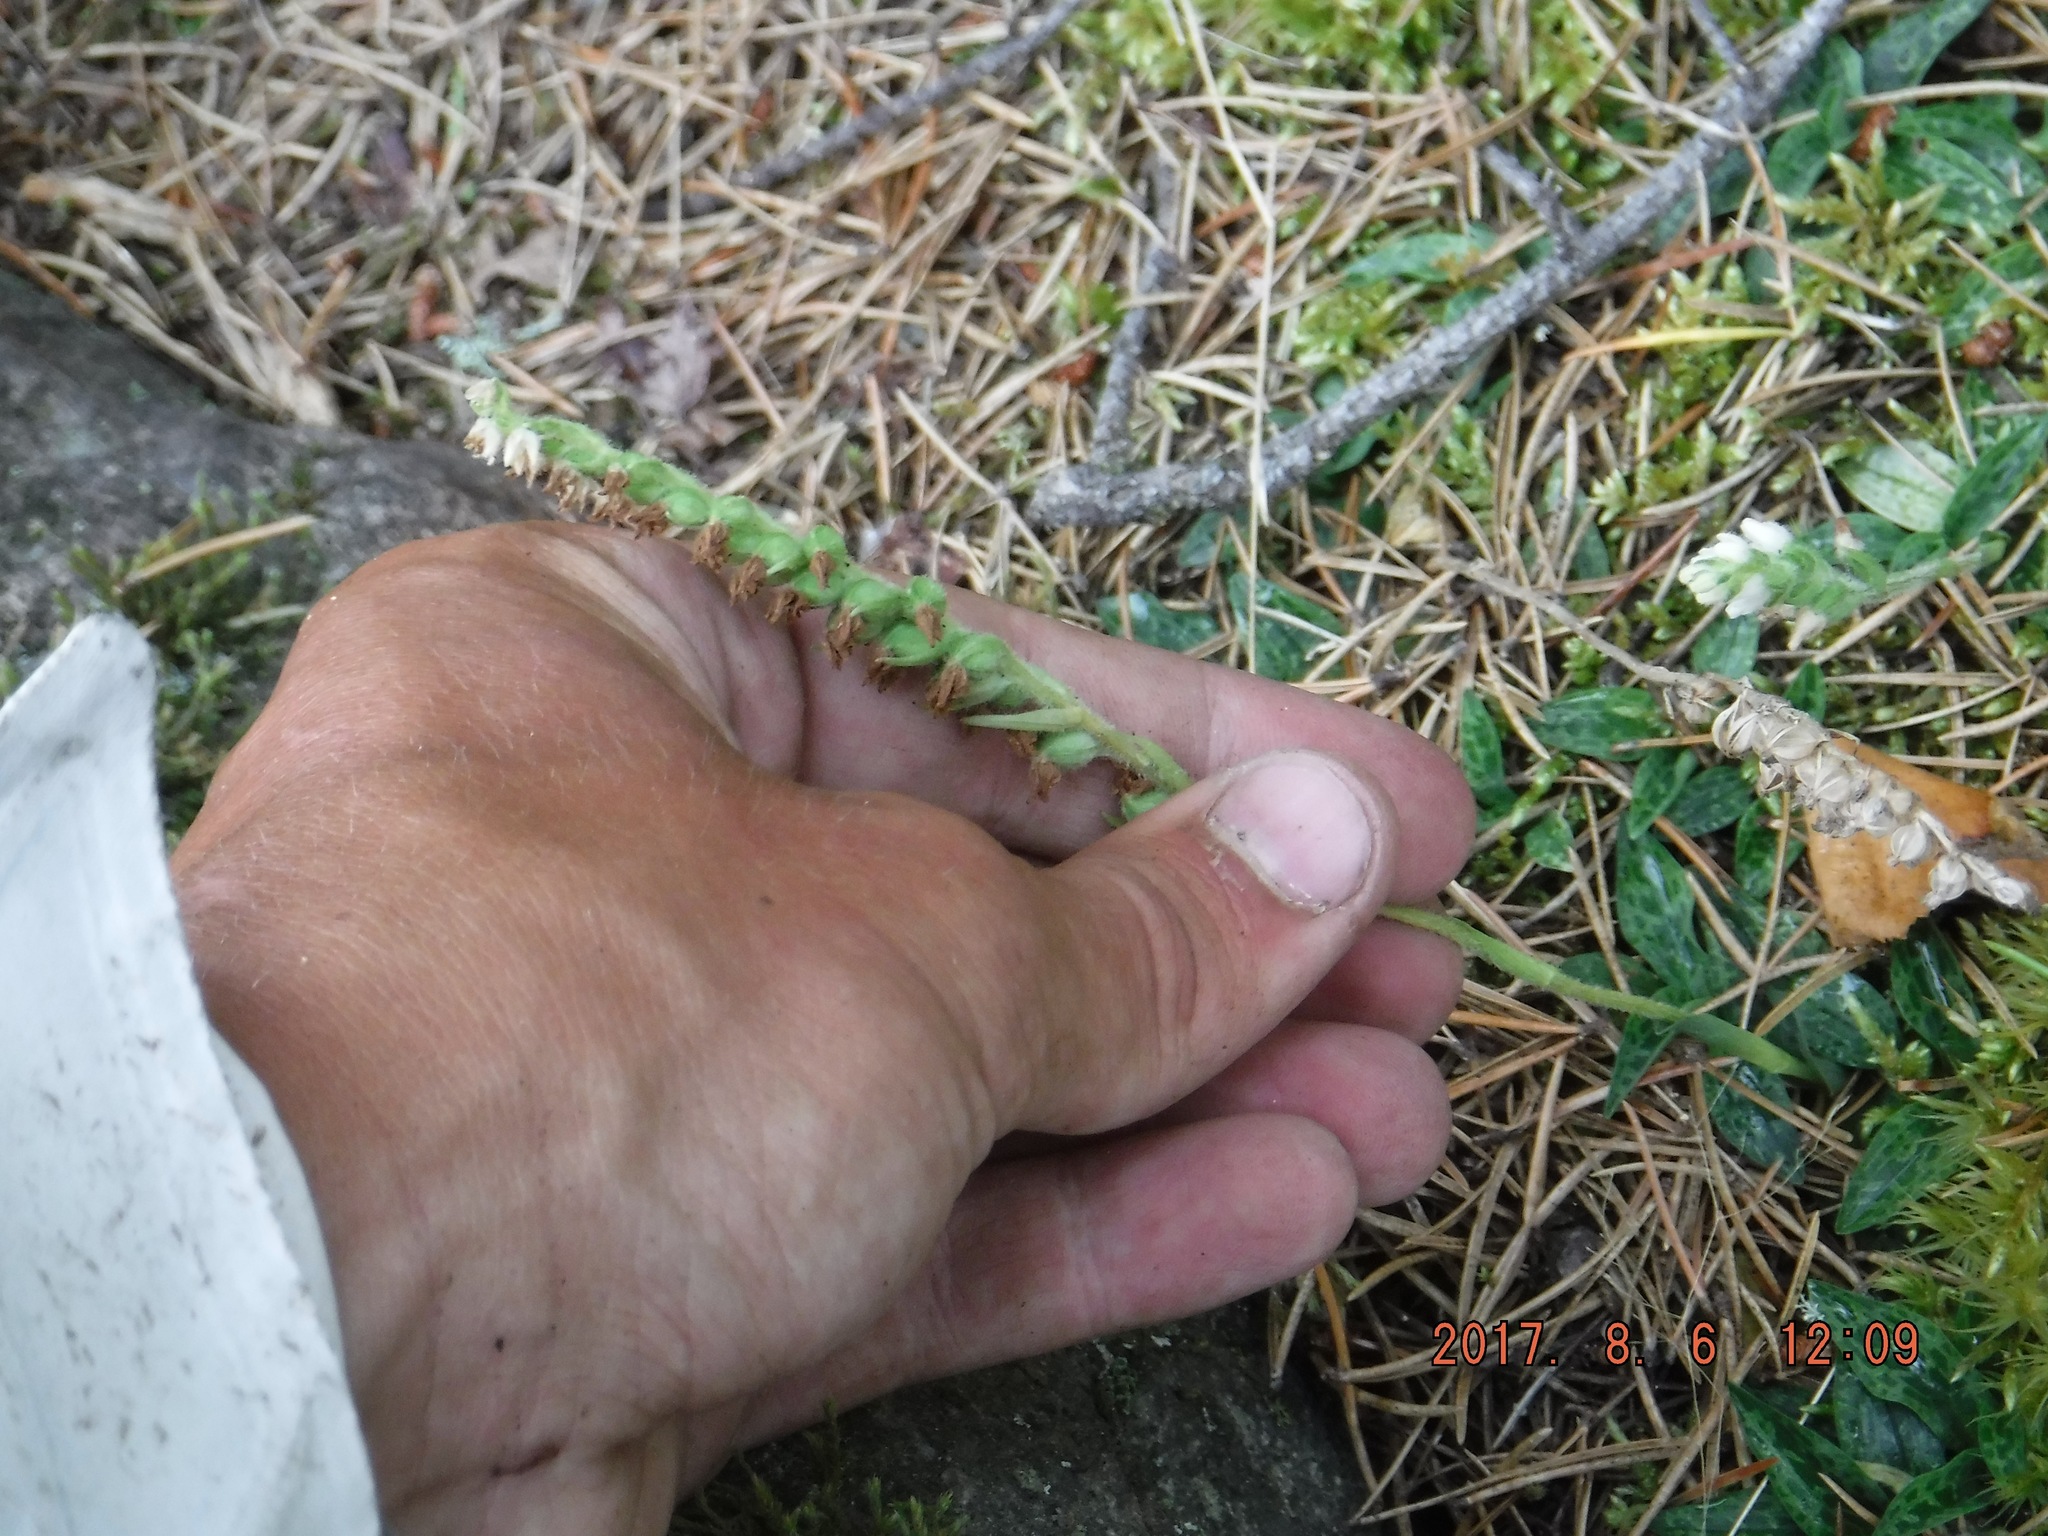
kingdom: Plantae
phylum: Tracheophyta
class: Liliopsida
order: Asparagales
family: Orchidaceae
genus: Goodyera
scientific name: Goodyera repens
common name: Creeping lady's-tresses
